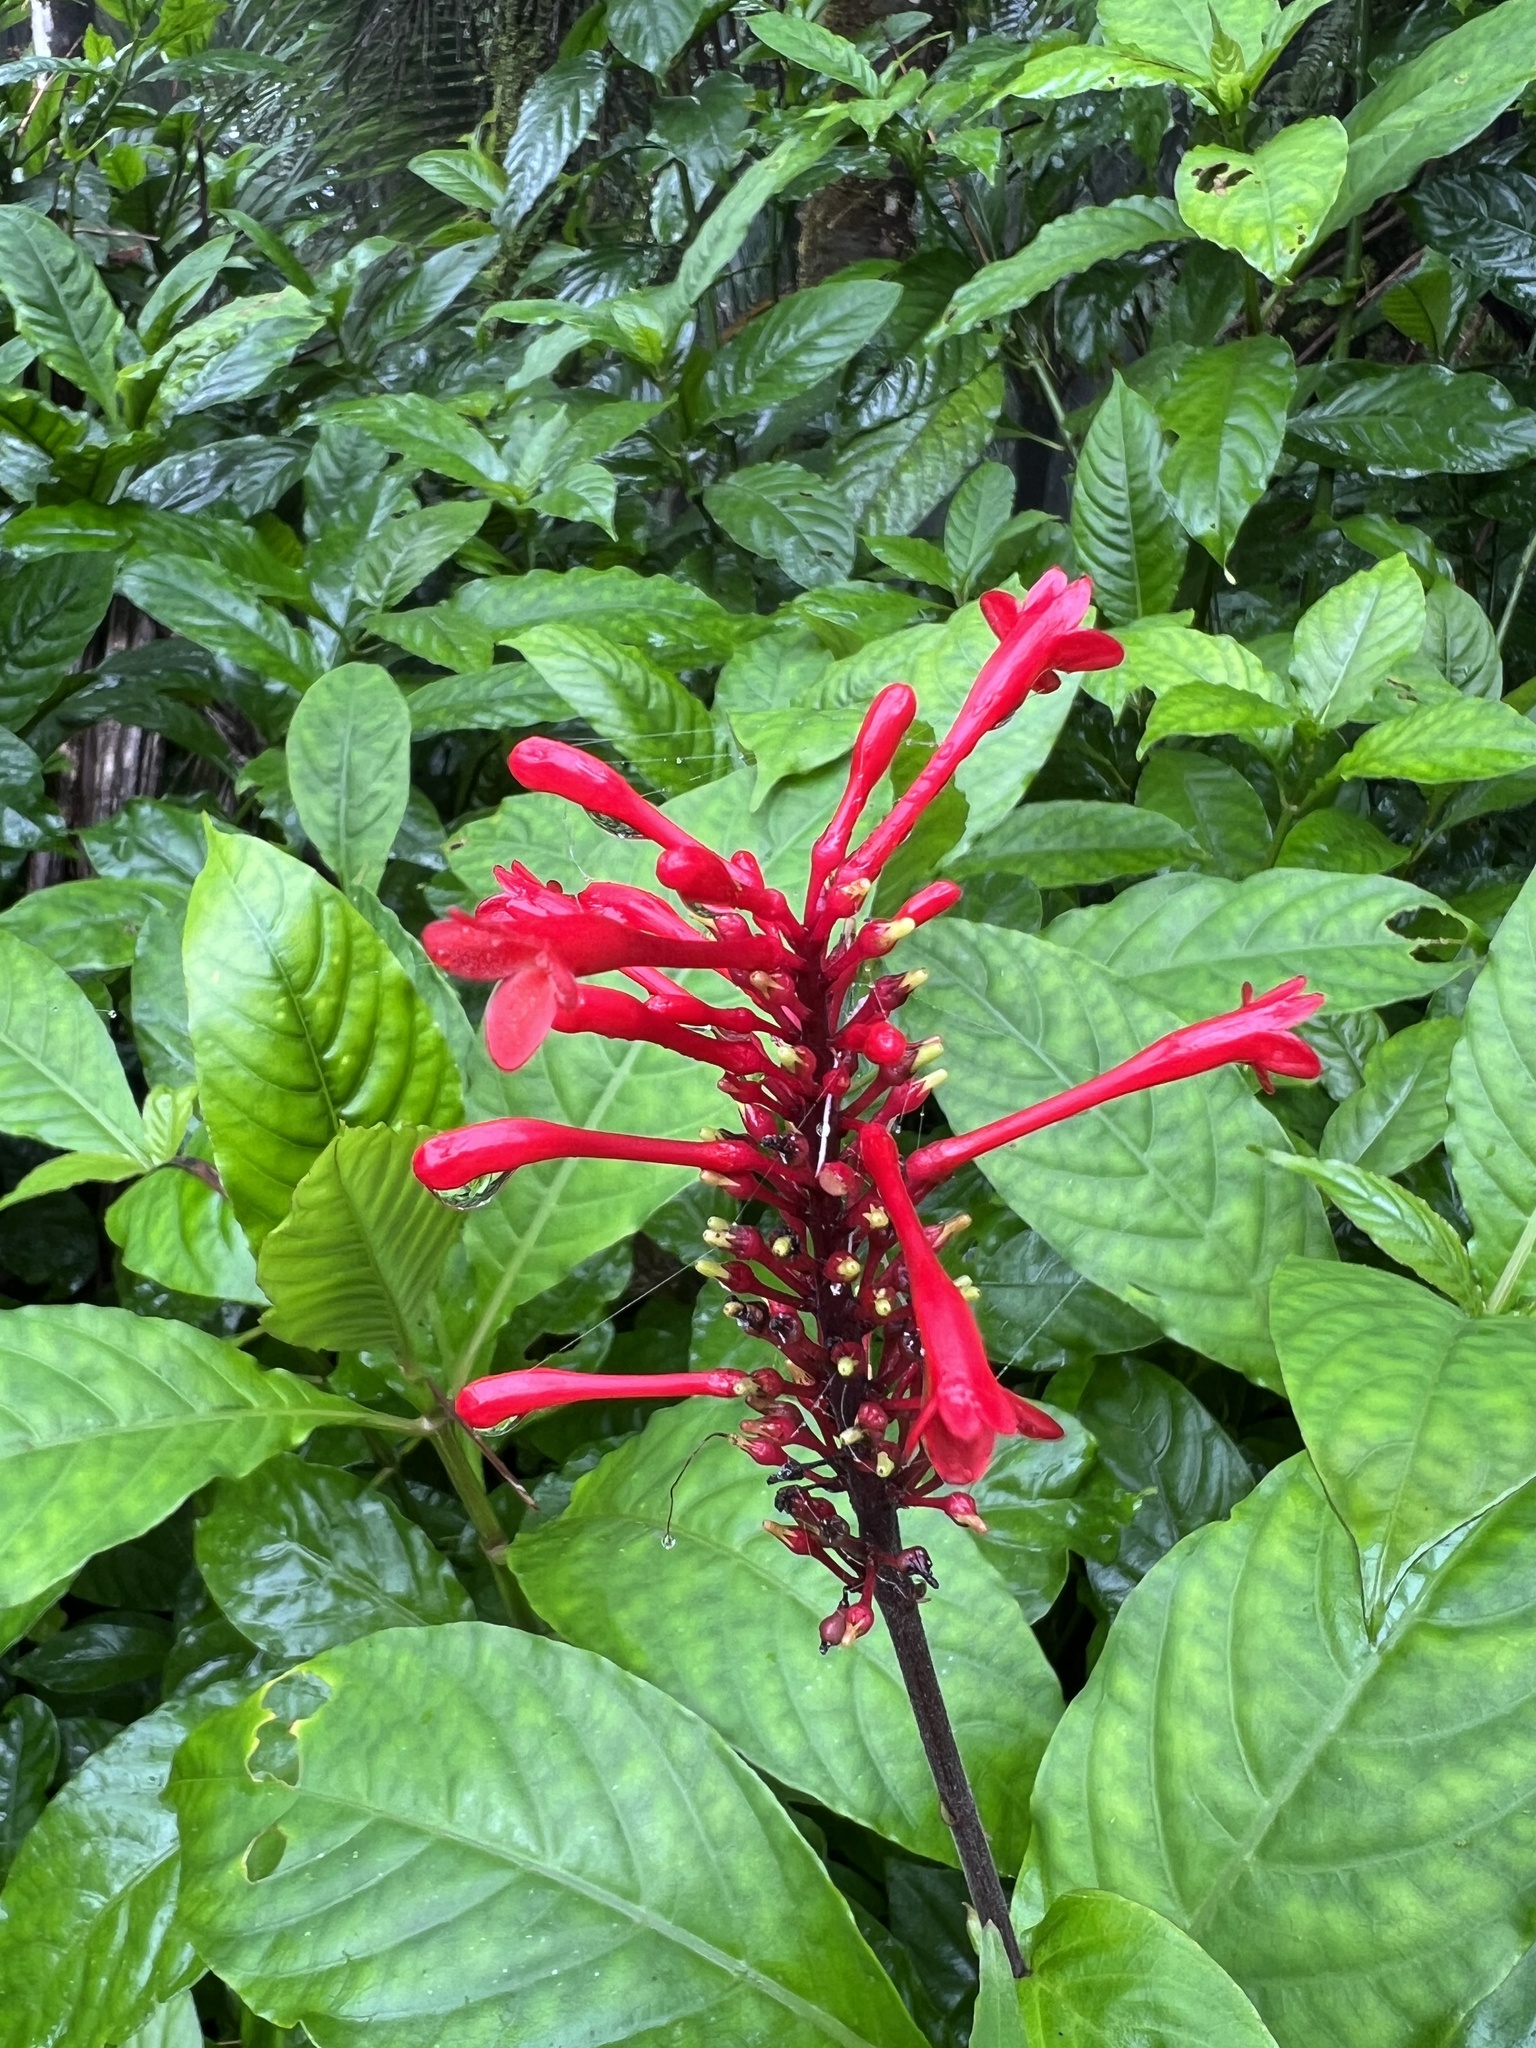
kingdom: Plantae
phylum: Tracheophyta
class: Magnoliopsida
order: Lamiales
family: Acanthaceae
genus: Odontonema
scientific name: Odontonema cuspidatum
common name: Mottled toothedthread
